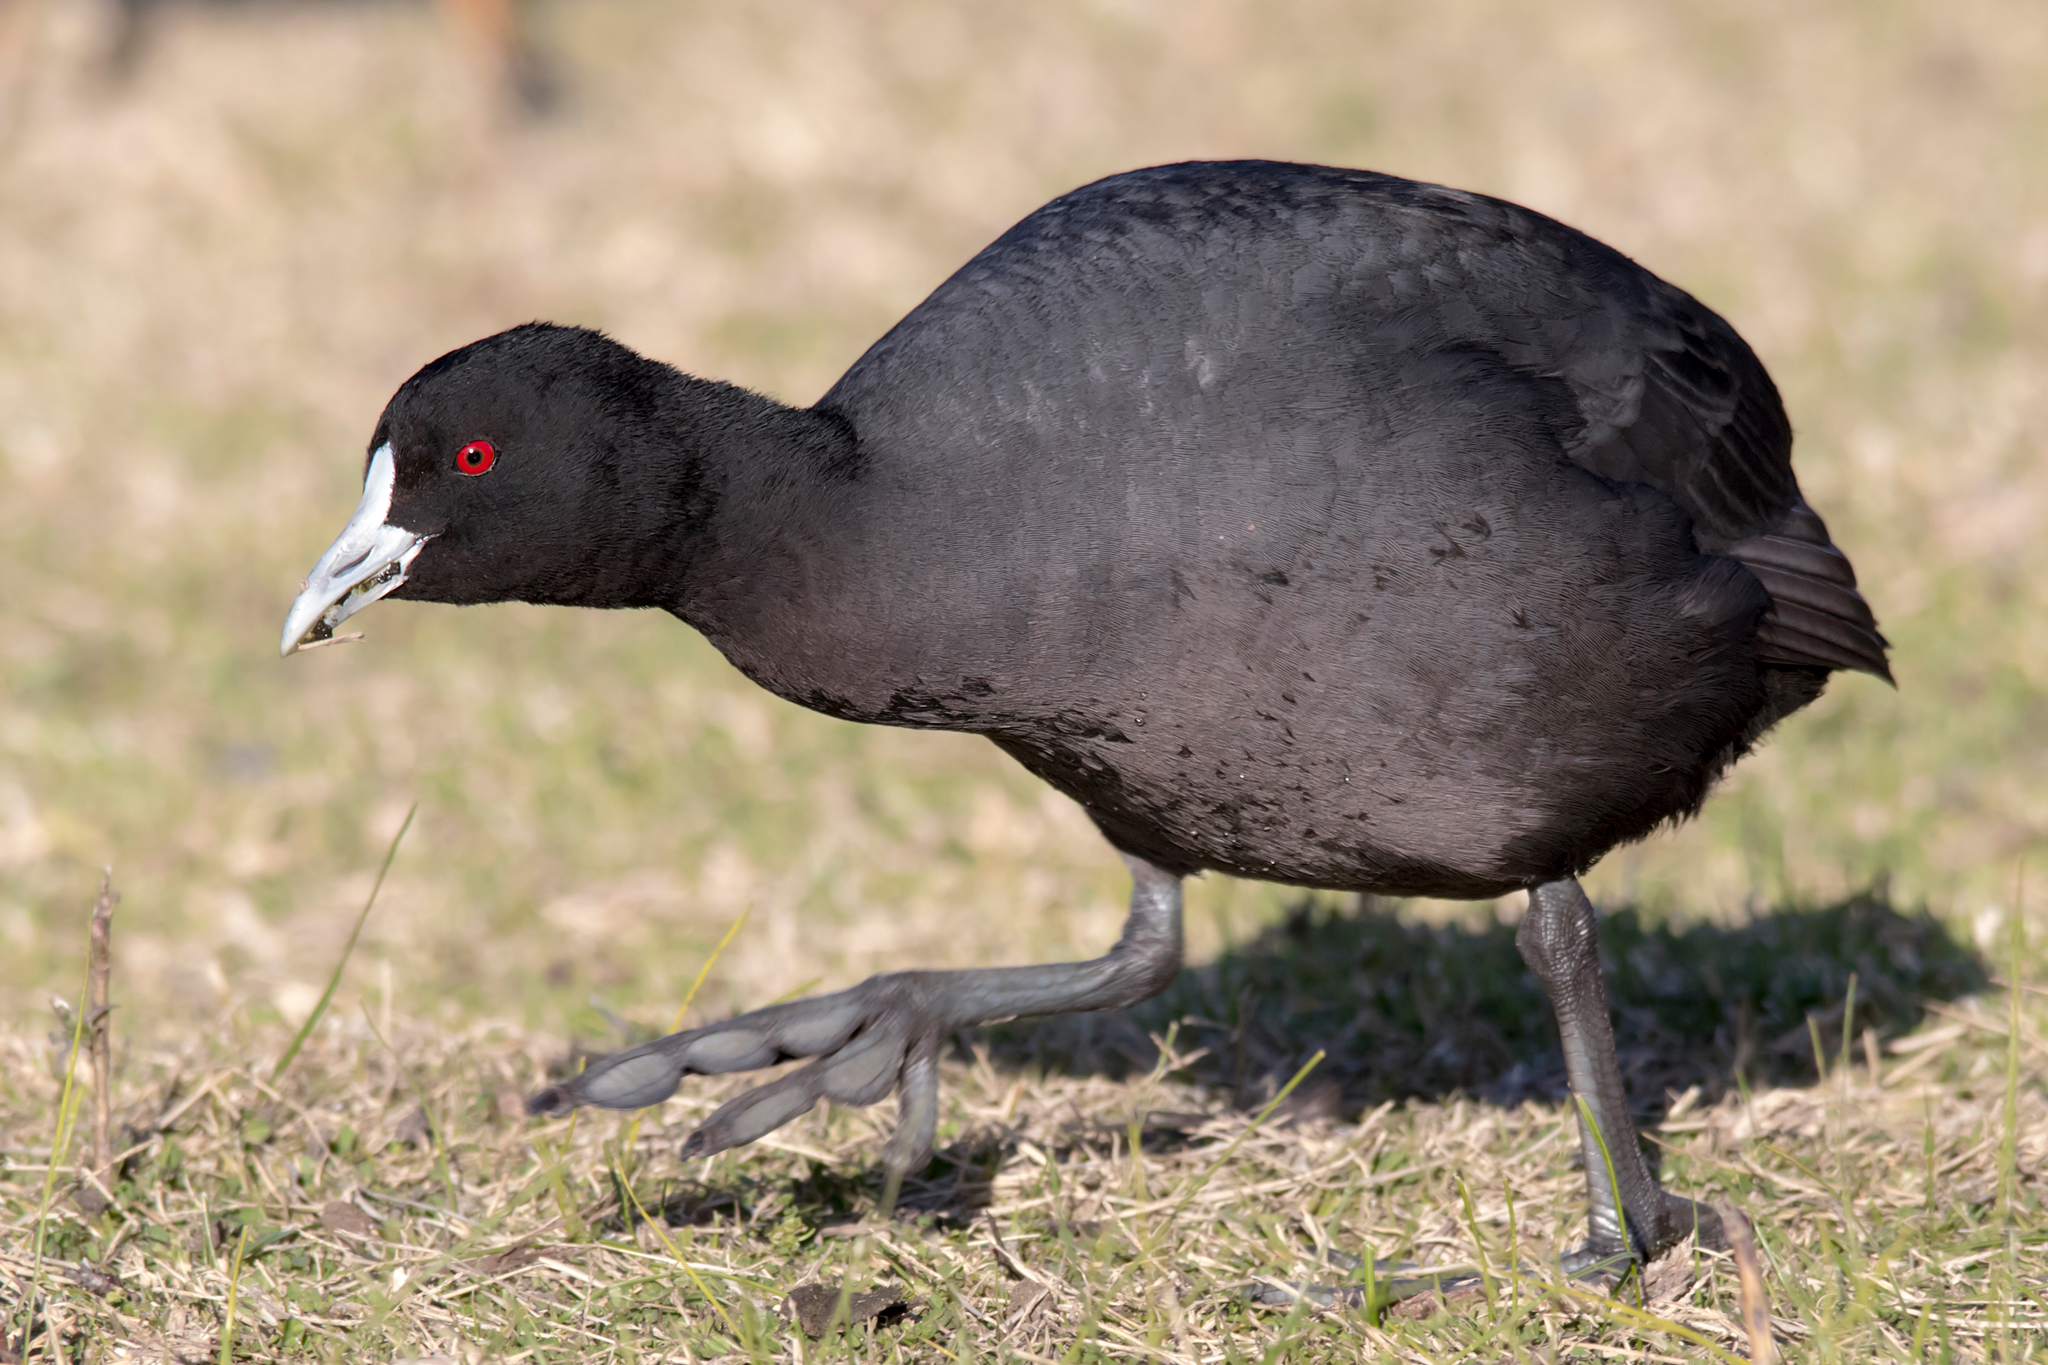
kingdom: Animalia
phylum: Chordata
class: Aves
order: Gruiformes
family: Rallidae
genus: Fulica
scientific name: Fulica atra
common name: Eurasian coot
